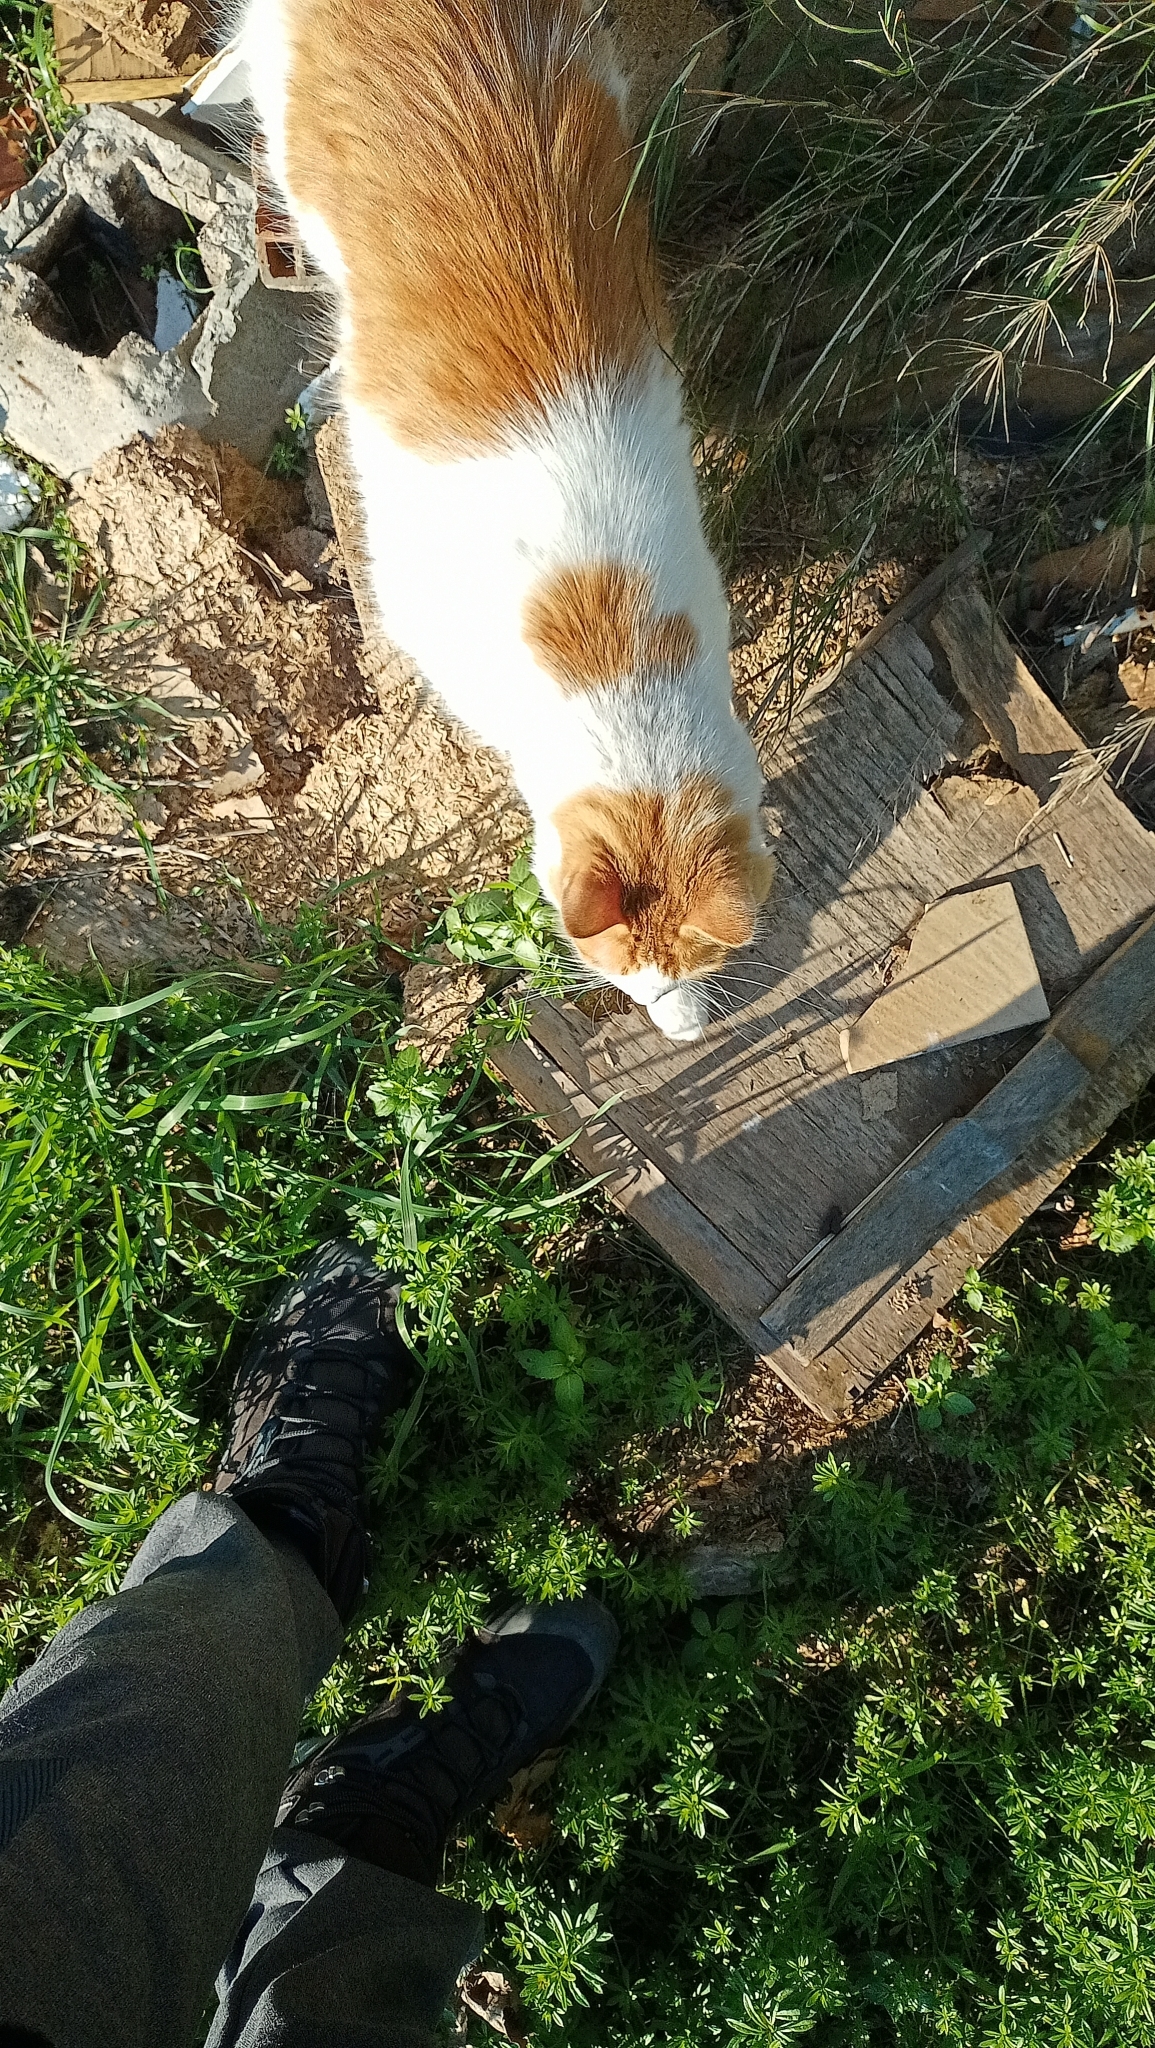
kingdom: Animalia
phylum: Chordata
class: Mammalia
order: Carnivora
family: Felidae
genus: Felis
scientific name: Felis catus
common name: Domestic cat
